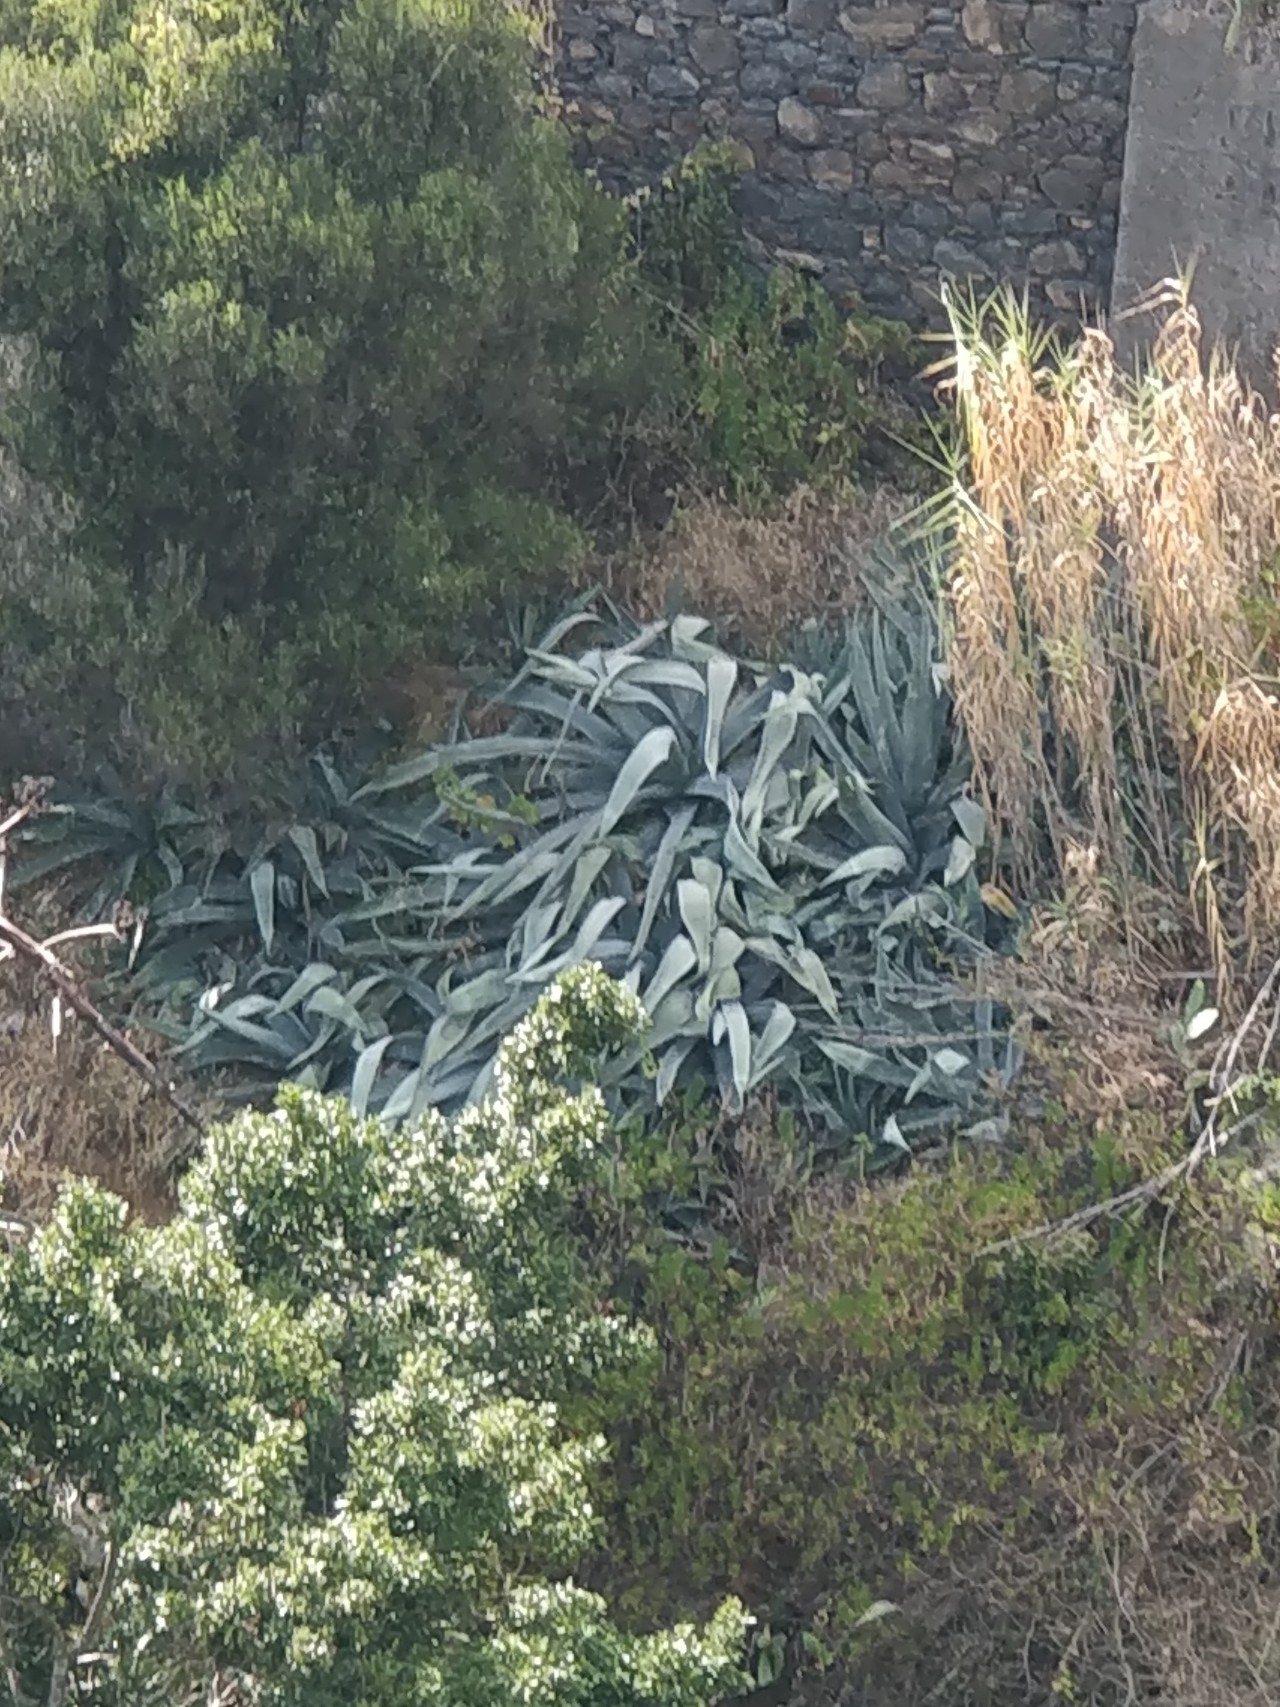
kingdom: Plantae
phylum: Tracheophyta
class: Liliopsida
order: Asparagales
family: Asparagaceae
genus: Agave
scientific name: Agave americana
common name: Centuryplant
